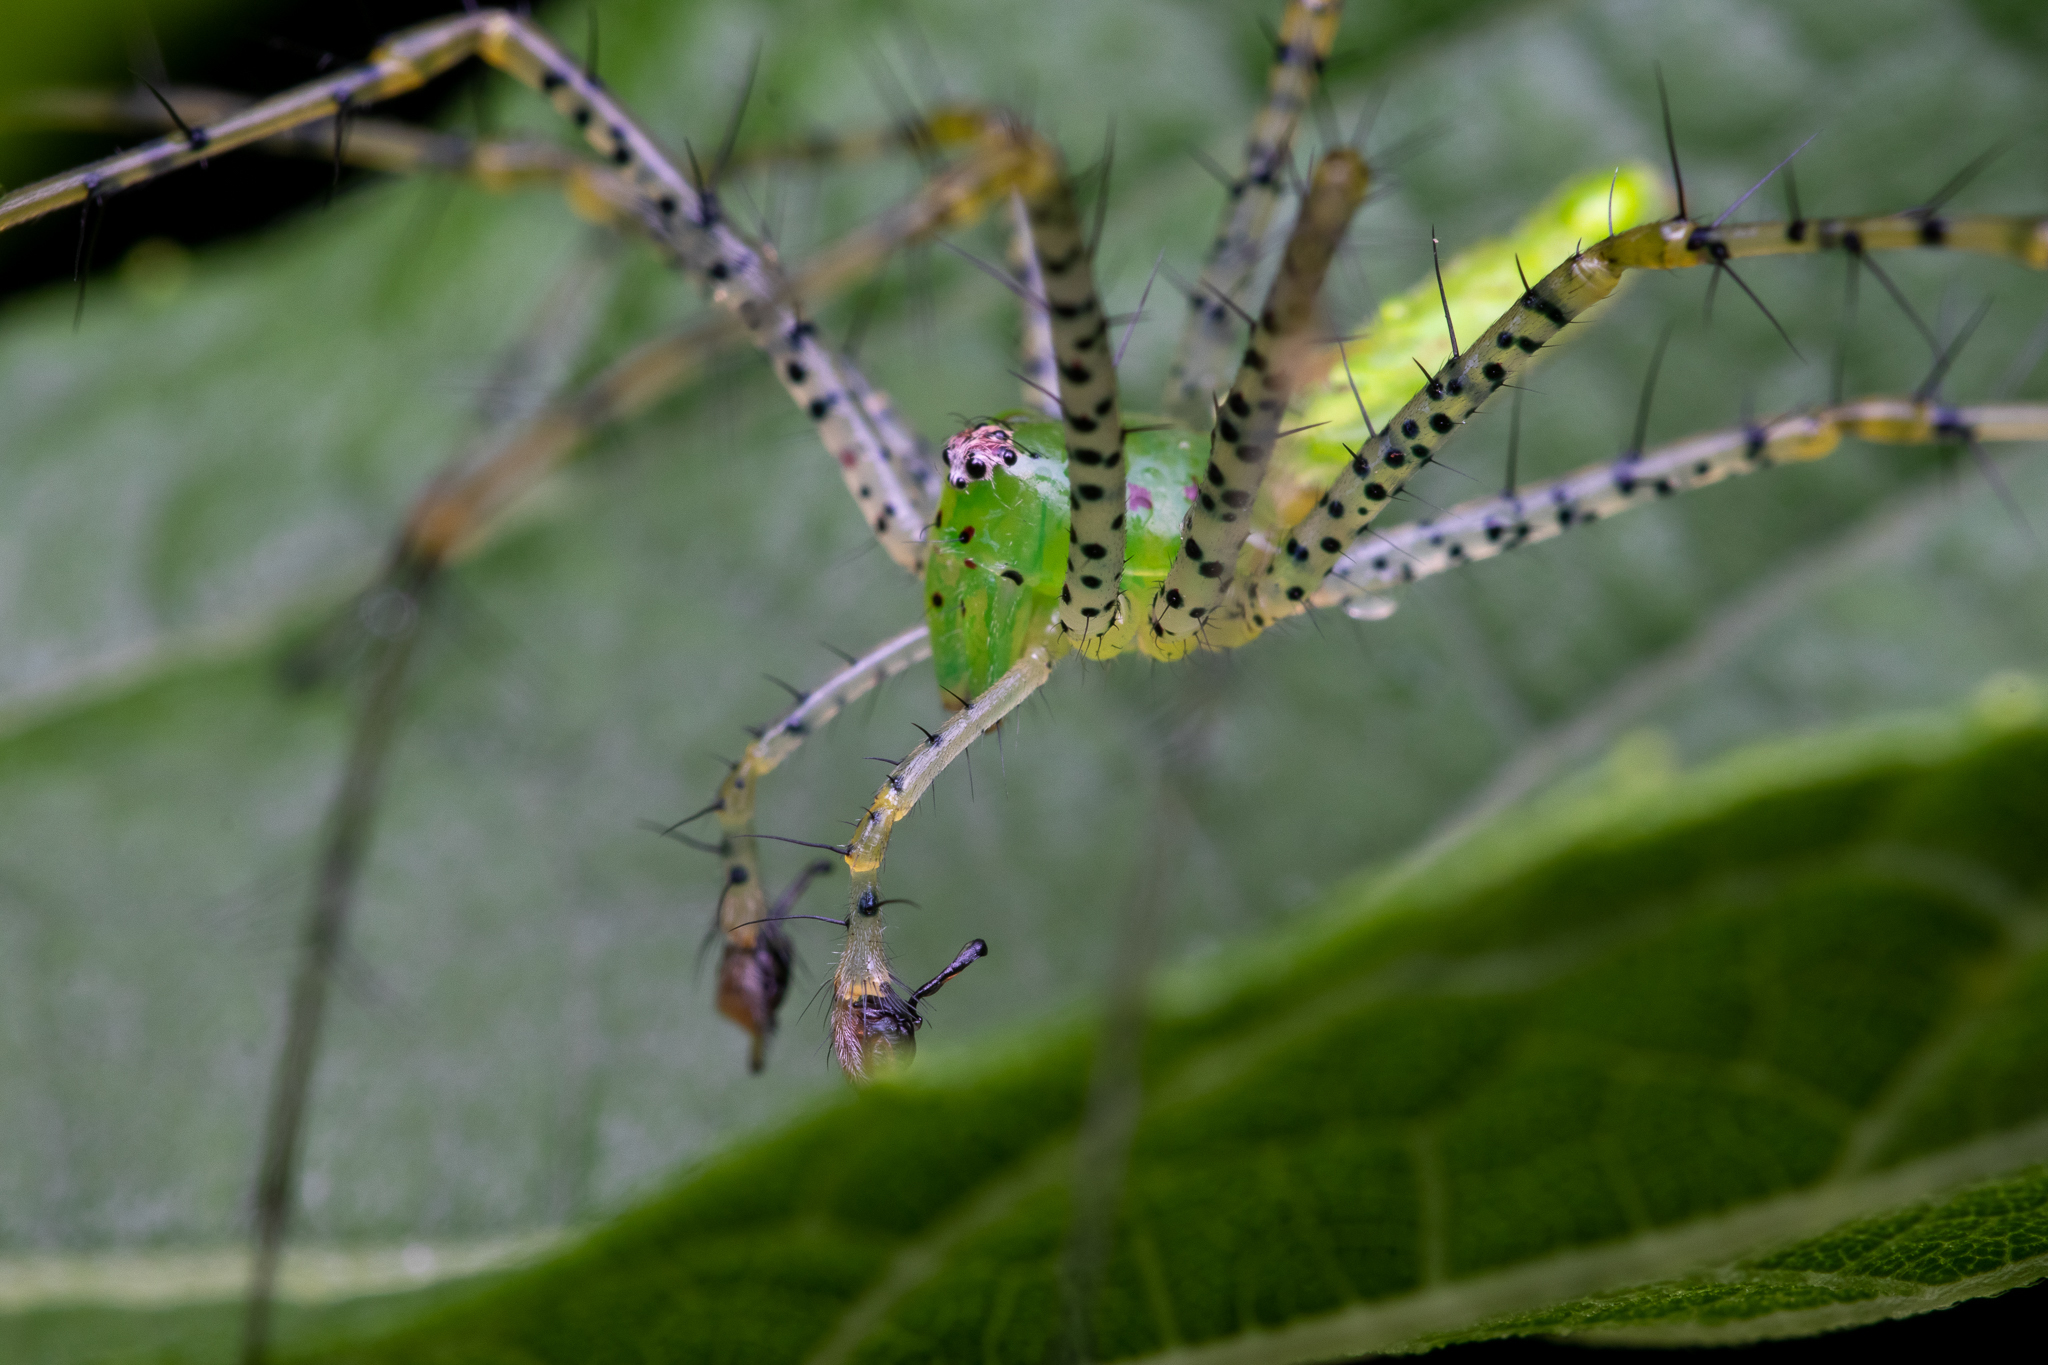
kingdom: Animalia
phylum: Arthropoda
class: Arachnida
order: Araneae
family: Oxyopidae
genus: Peucetia
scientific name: Peucetia viridans
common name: Lynx spiders
